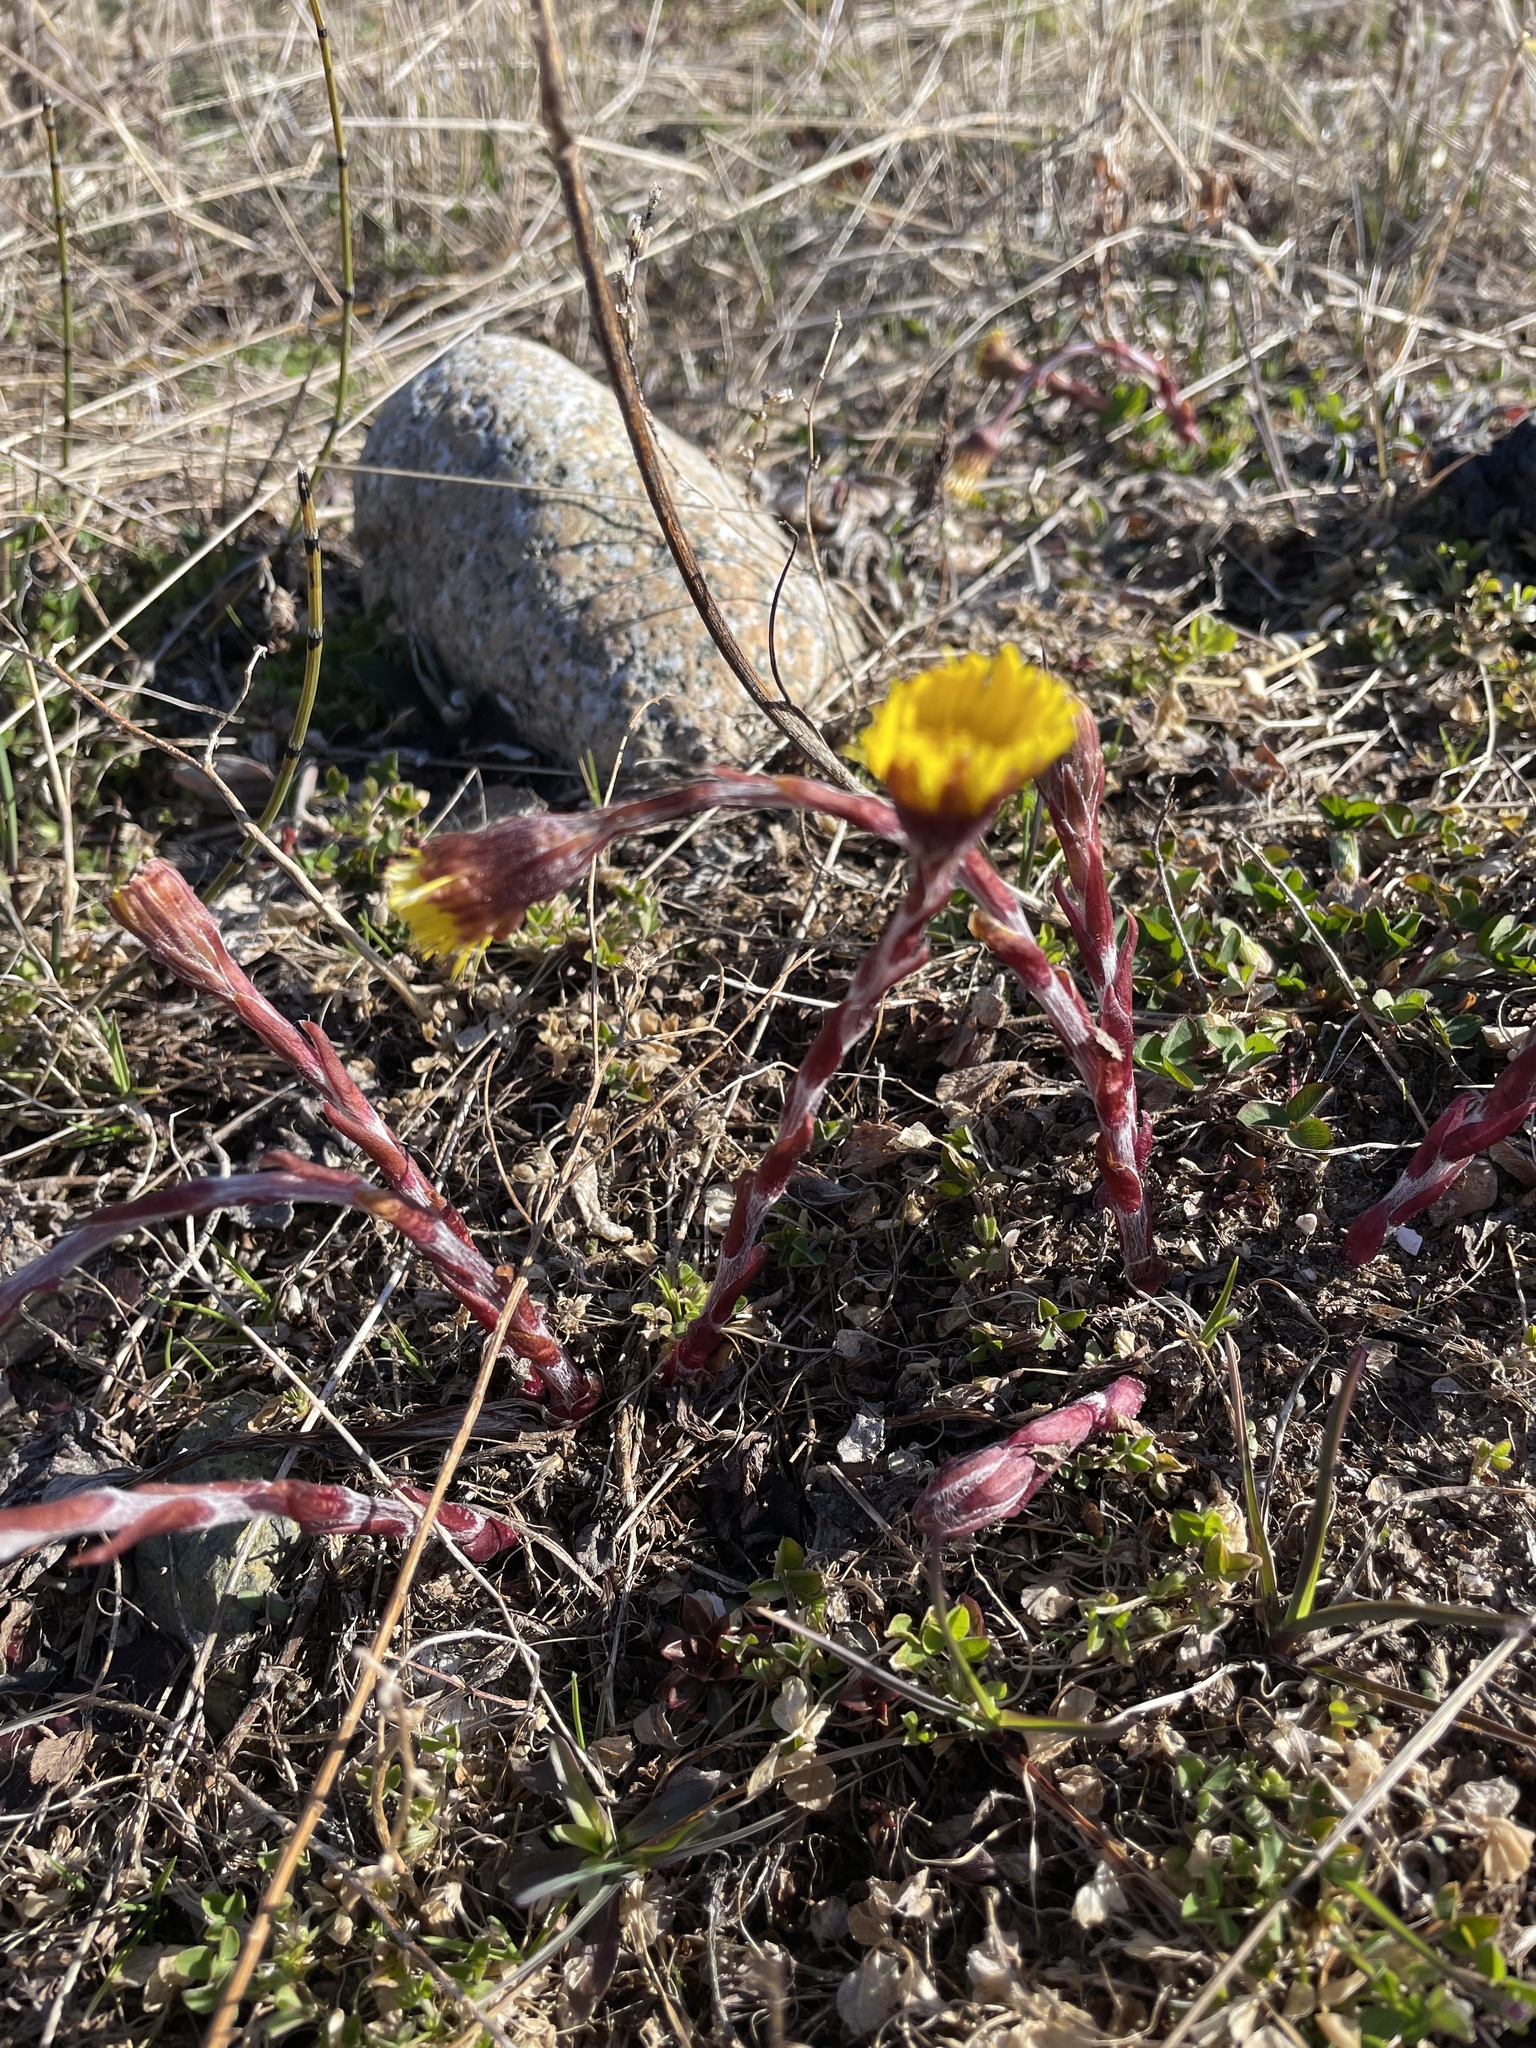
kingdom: Plantae
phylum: Tracheophyta
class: Magnoliopsida
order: Asterales
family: Asteraceae
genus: Tussilago
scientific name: Tussilago farfara
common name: Coltsfoot
